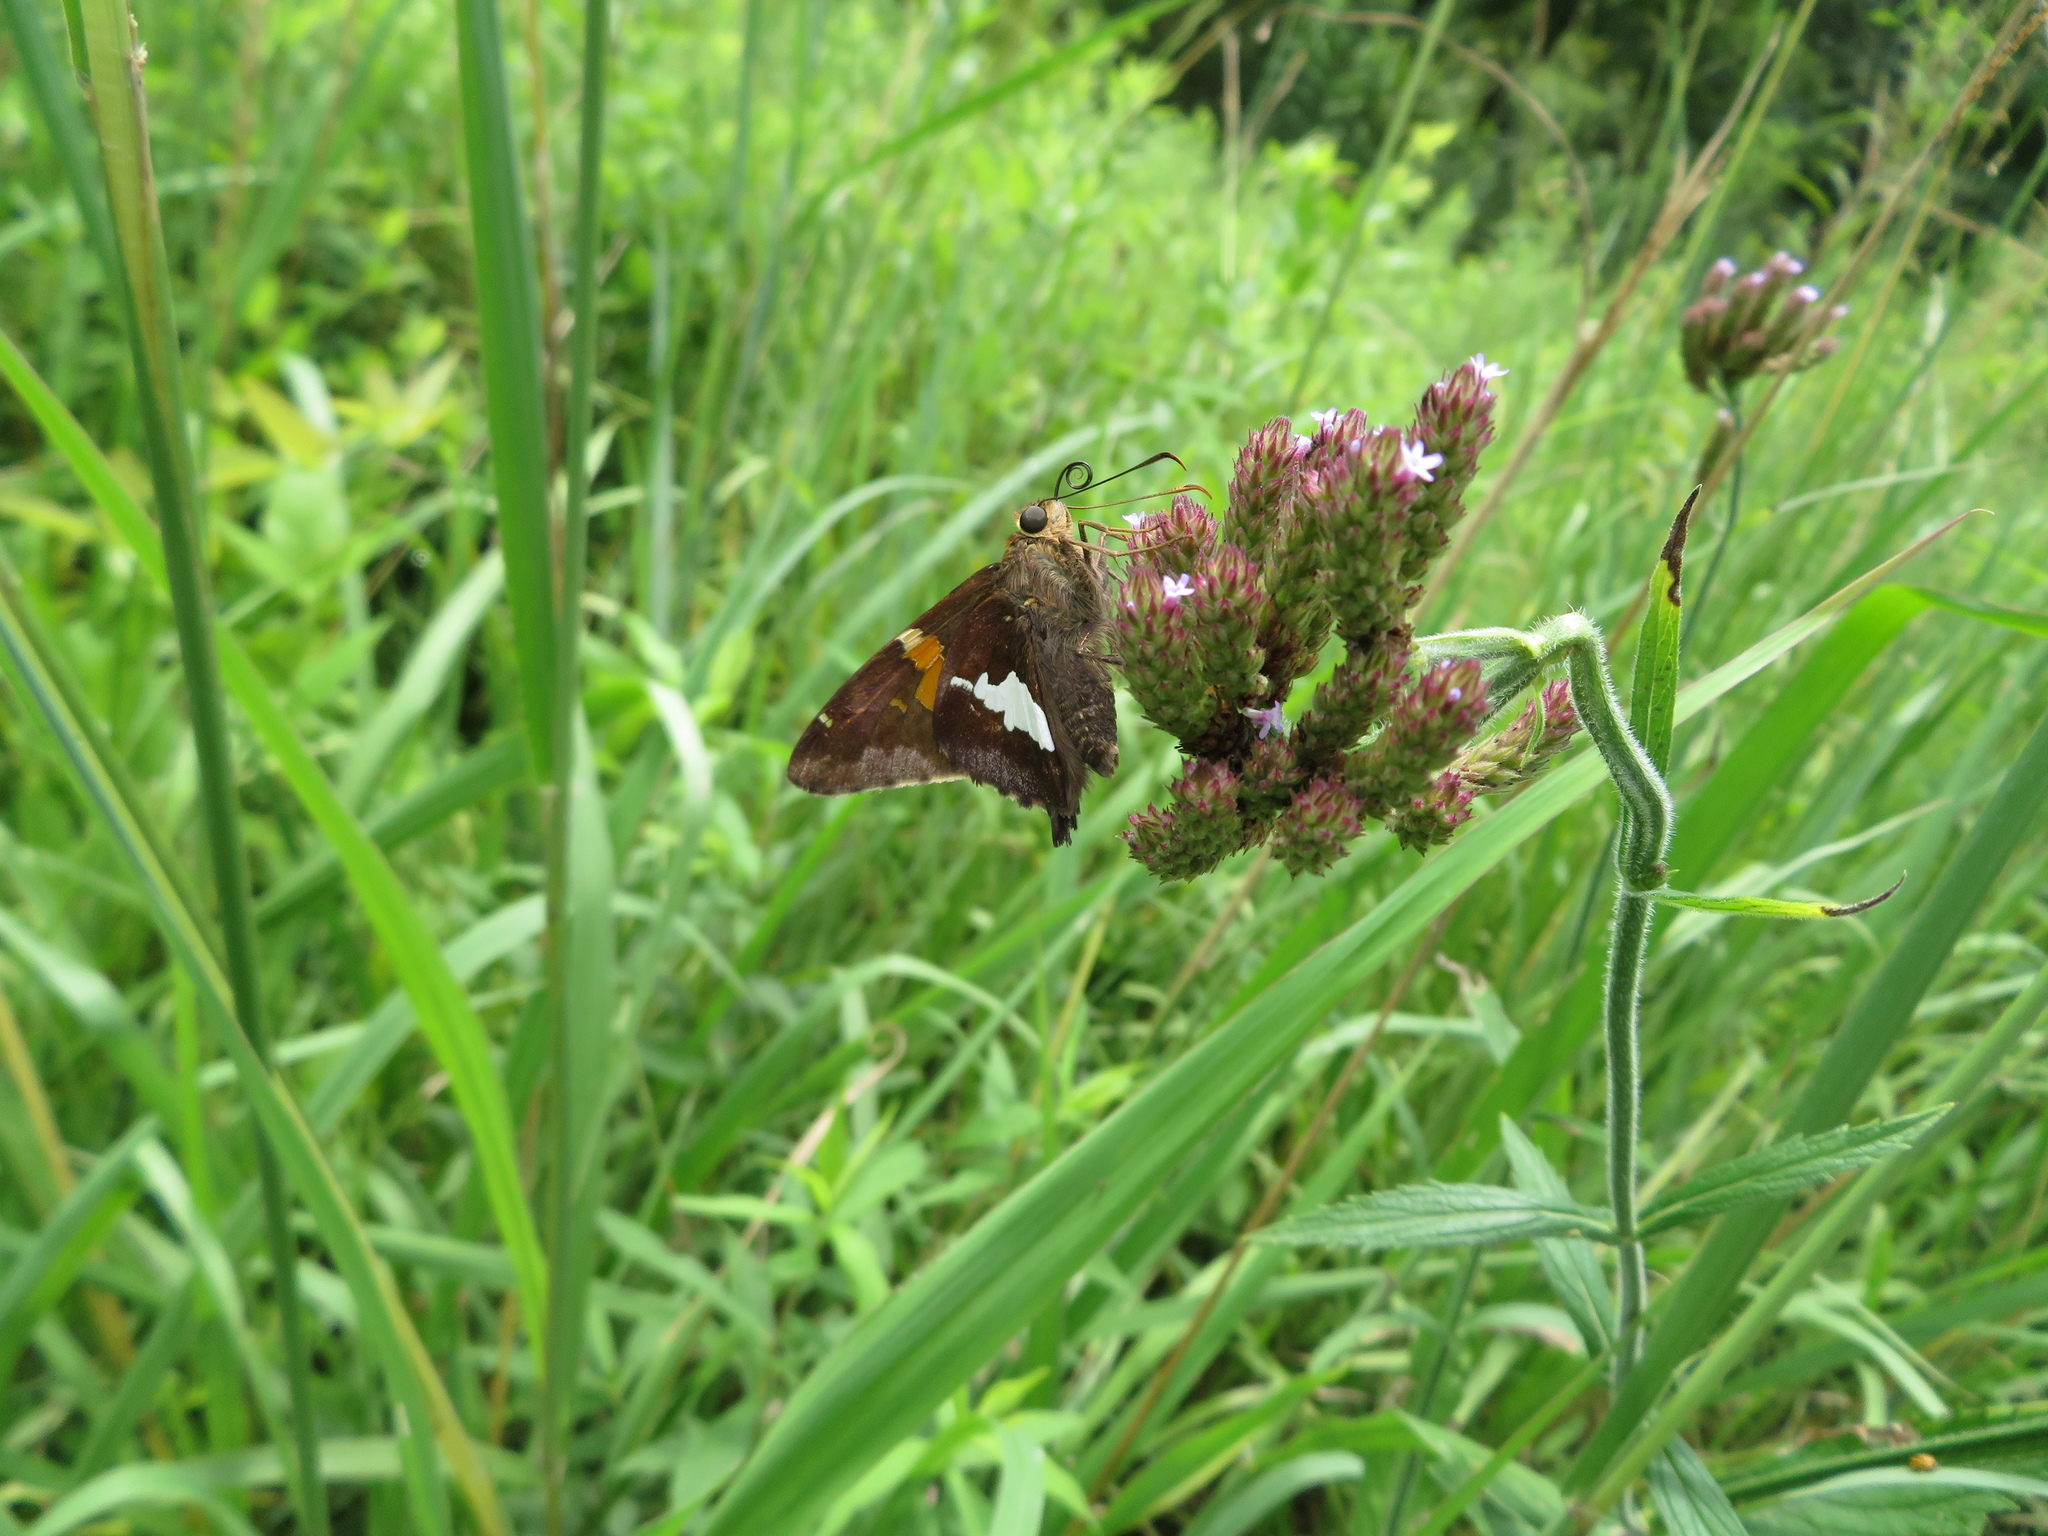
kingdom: Animalia
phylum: Arthropoda
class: Insecta
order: Lepidoptera
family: Hesperiidae
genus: Epargyreus
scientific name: Epargyreus clarus
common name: Silver-spotted skipper
